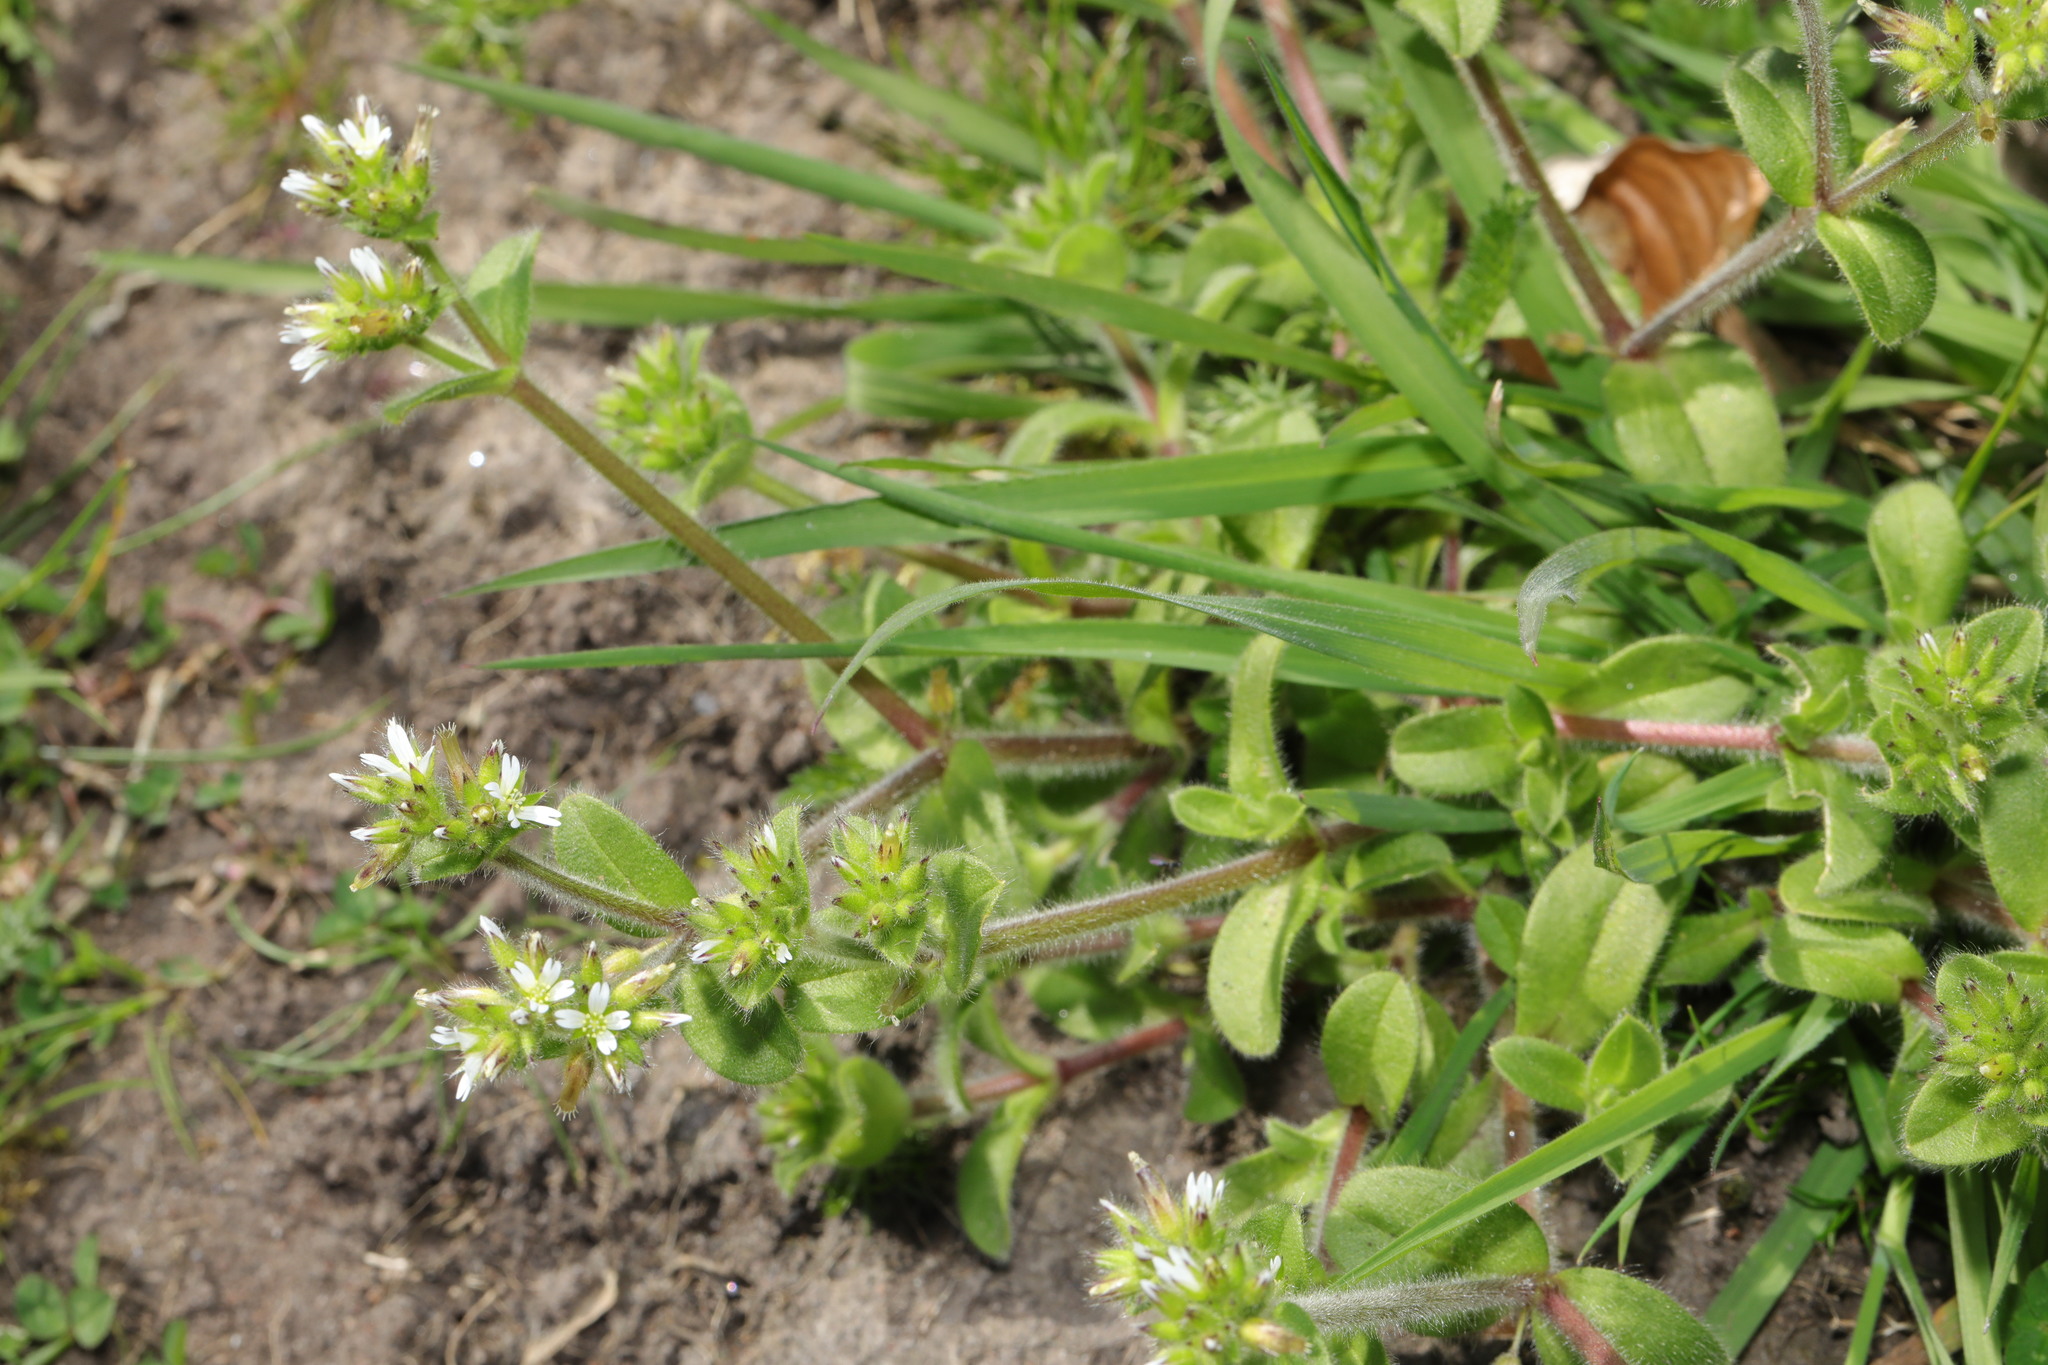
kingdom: Plantae
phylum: Tracheophyta
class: Magnoliopsida
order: Caryophyllales
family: Caryophyllaceae
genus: Cerastium
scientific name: Cerastium glomeratum
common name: Sticky chickweed
